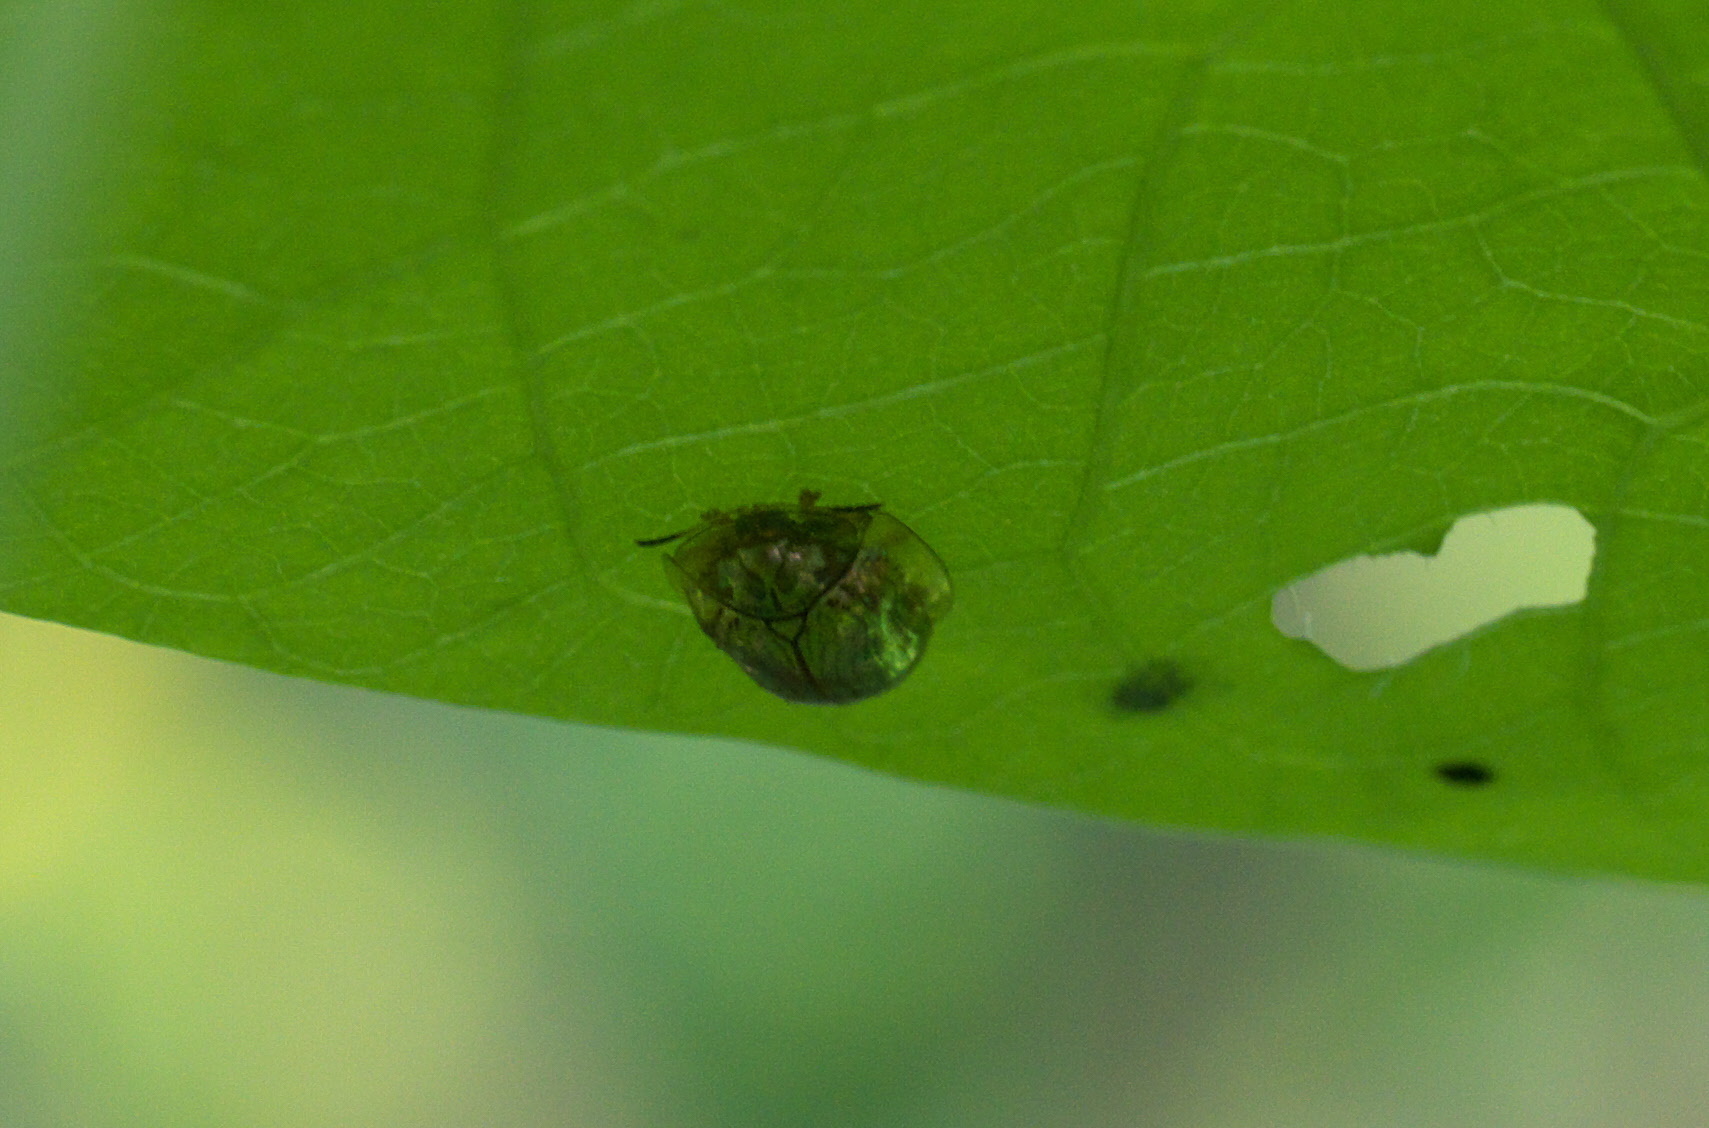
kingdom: Animalia
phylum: Arthropoda
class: Insecta
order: Coleoptera
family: Chrysomelidae
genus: Charidotella
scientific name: Charidotella sexpunctata
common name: Golden tortoise beetle
